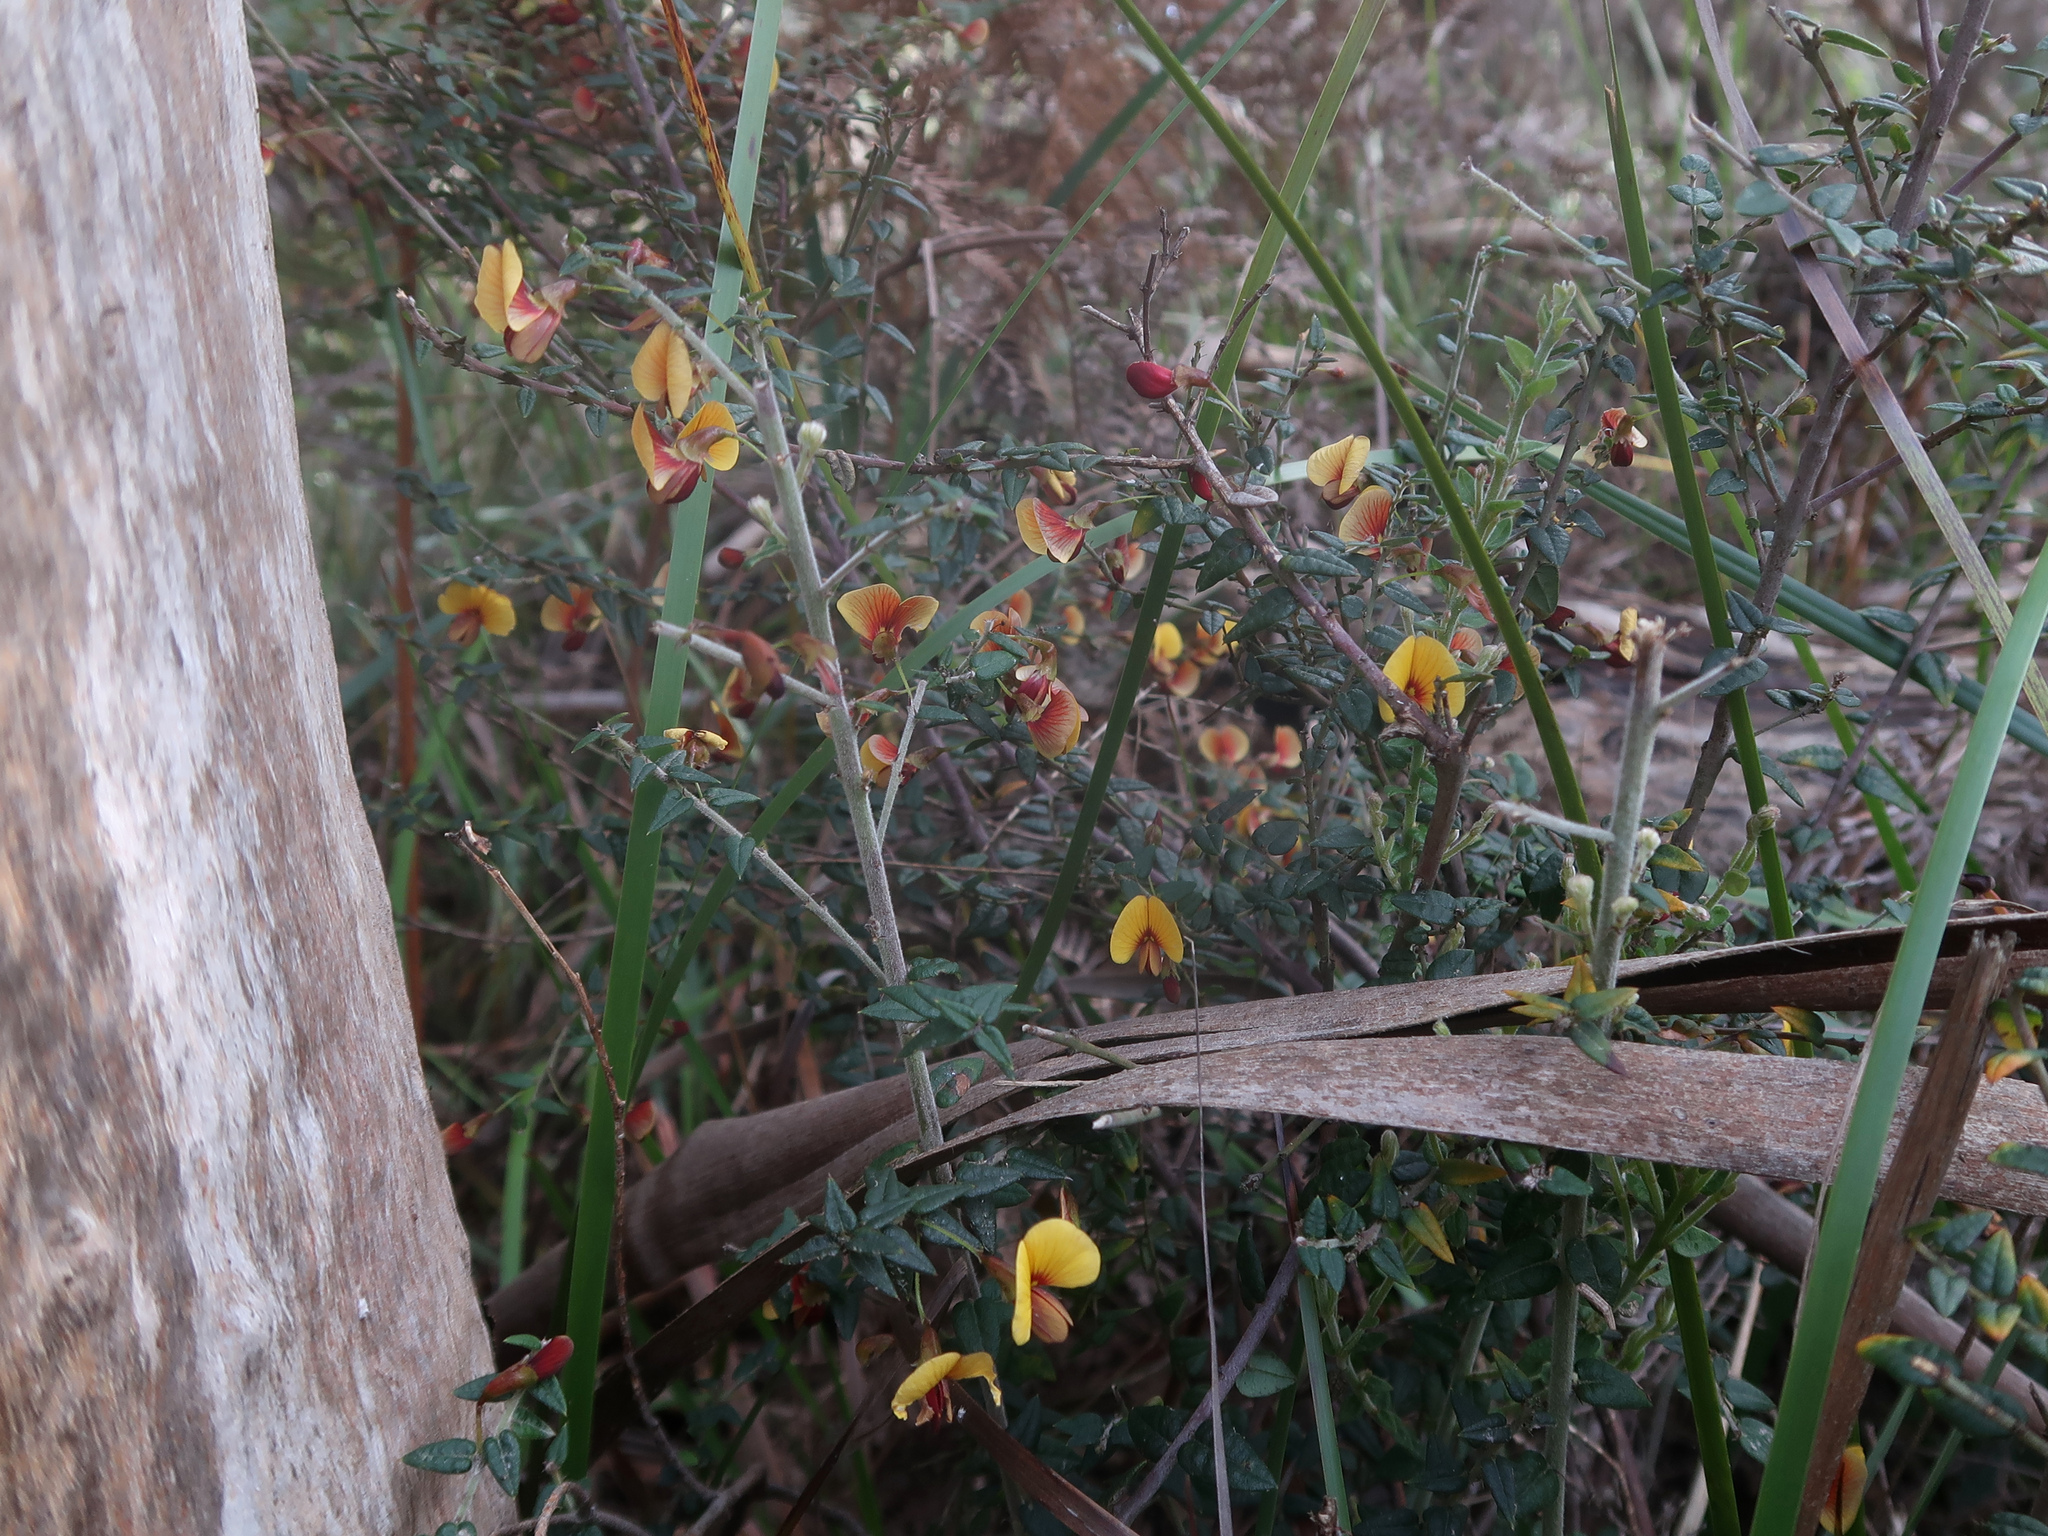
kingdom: Plantae
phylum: Tracheophyta
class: Magnoliopsida
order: Fabales
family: Fabaceae
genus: Bossiaea
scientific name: Bossiaea cinerea
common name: Showy bossiaea
